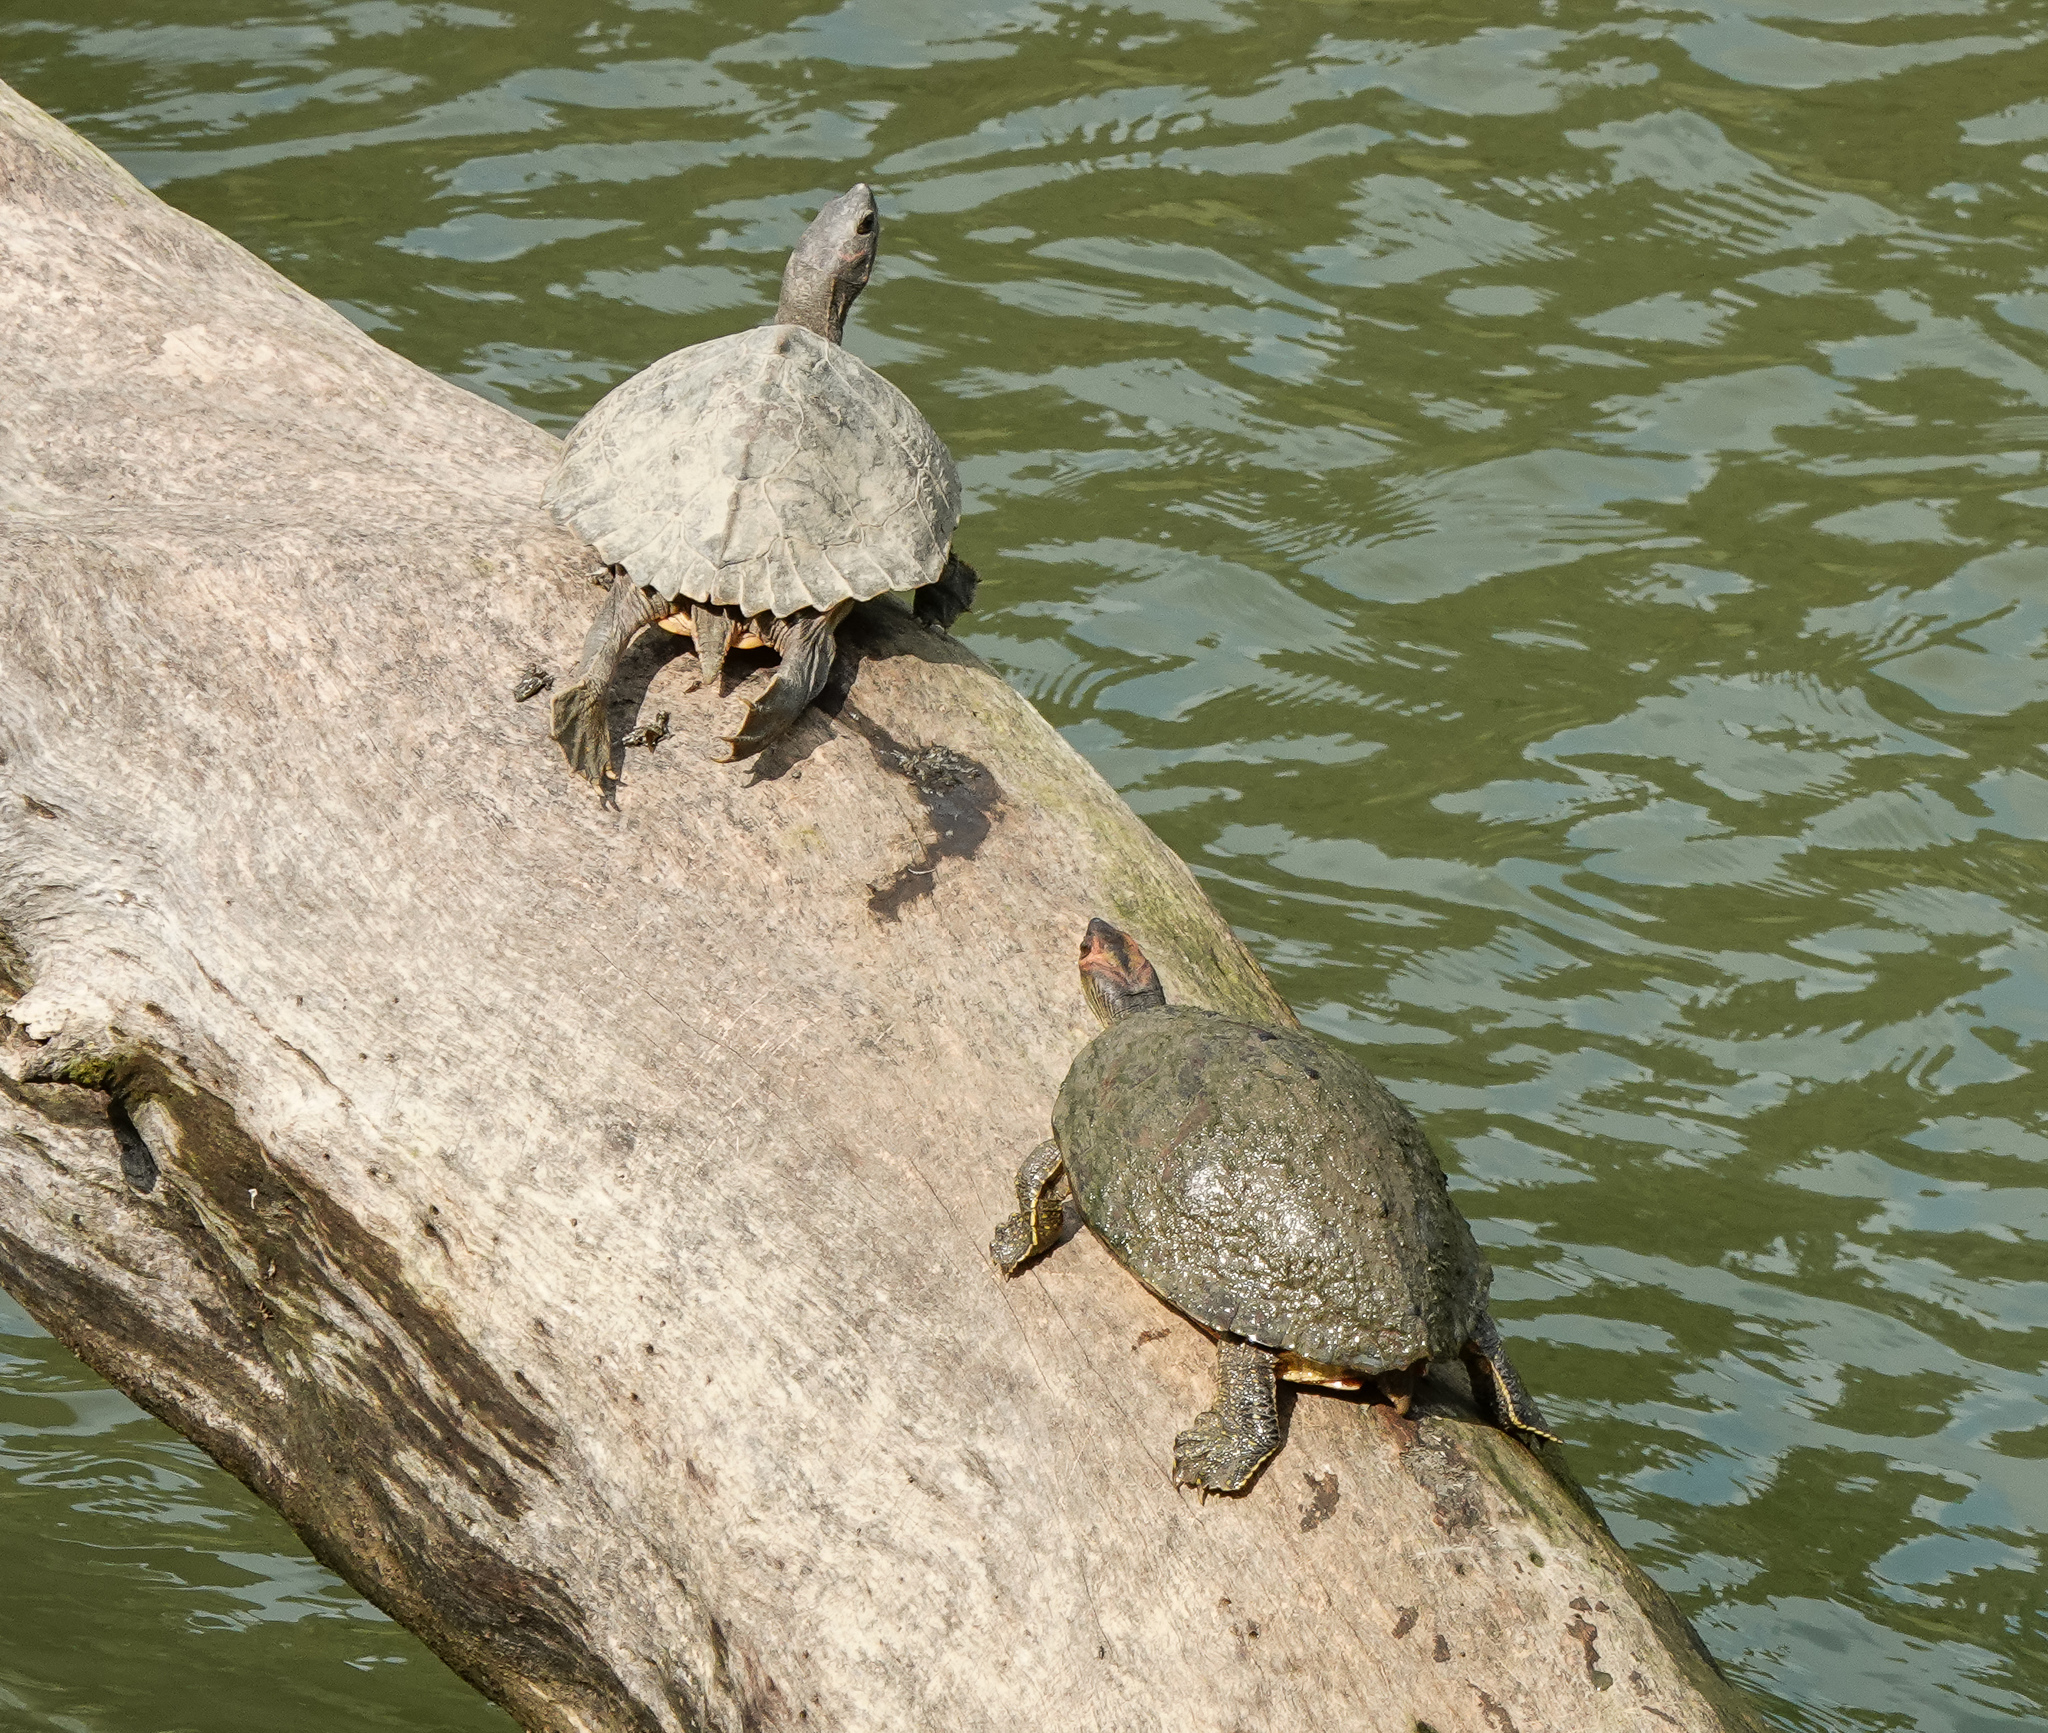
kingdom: Animalia
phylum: Chordata
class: Testudines
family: Geoemydidae
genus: Pangshura
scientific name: Pangshura sylhetensis
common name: Assam roofed turtle
